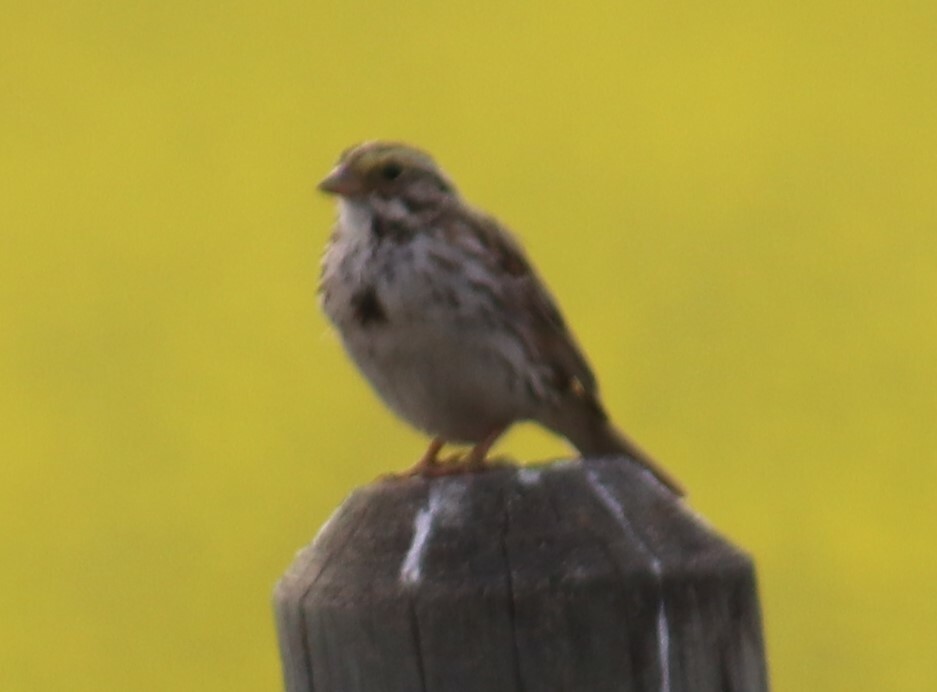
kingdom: Animalia
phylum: Chordata
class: Aves
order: Passeriformes
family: Passerellidae
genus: Passerculus
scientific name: Passerculus sandwichensis
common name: Savannah sparrow
